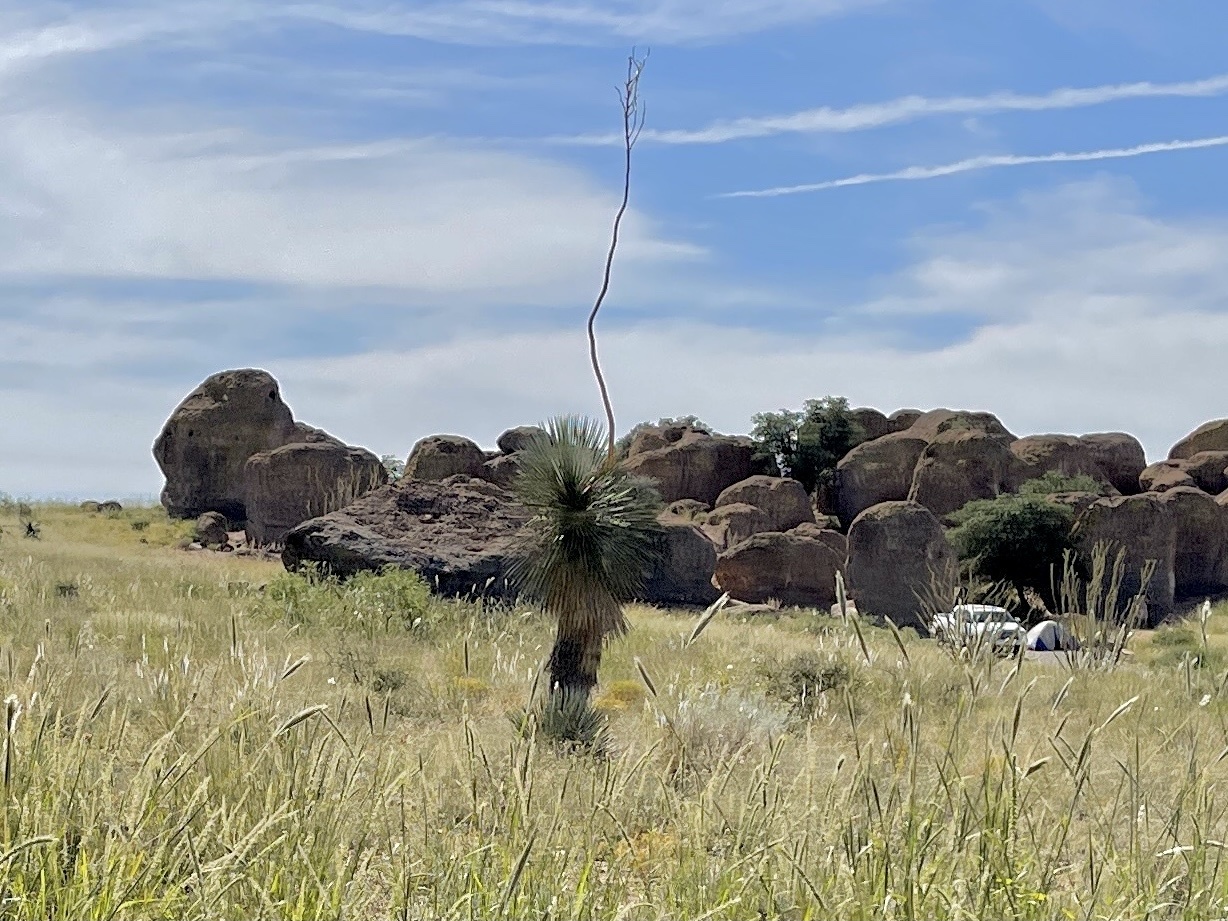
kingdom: Plantae
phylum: Tracheophyta
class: Liliopsida
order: Asparagales
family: Asparagaceae
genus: Yucca
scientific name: Yucca elata
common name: Palmella
